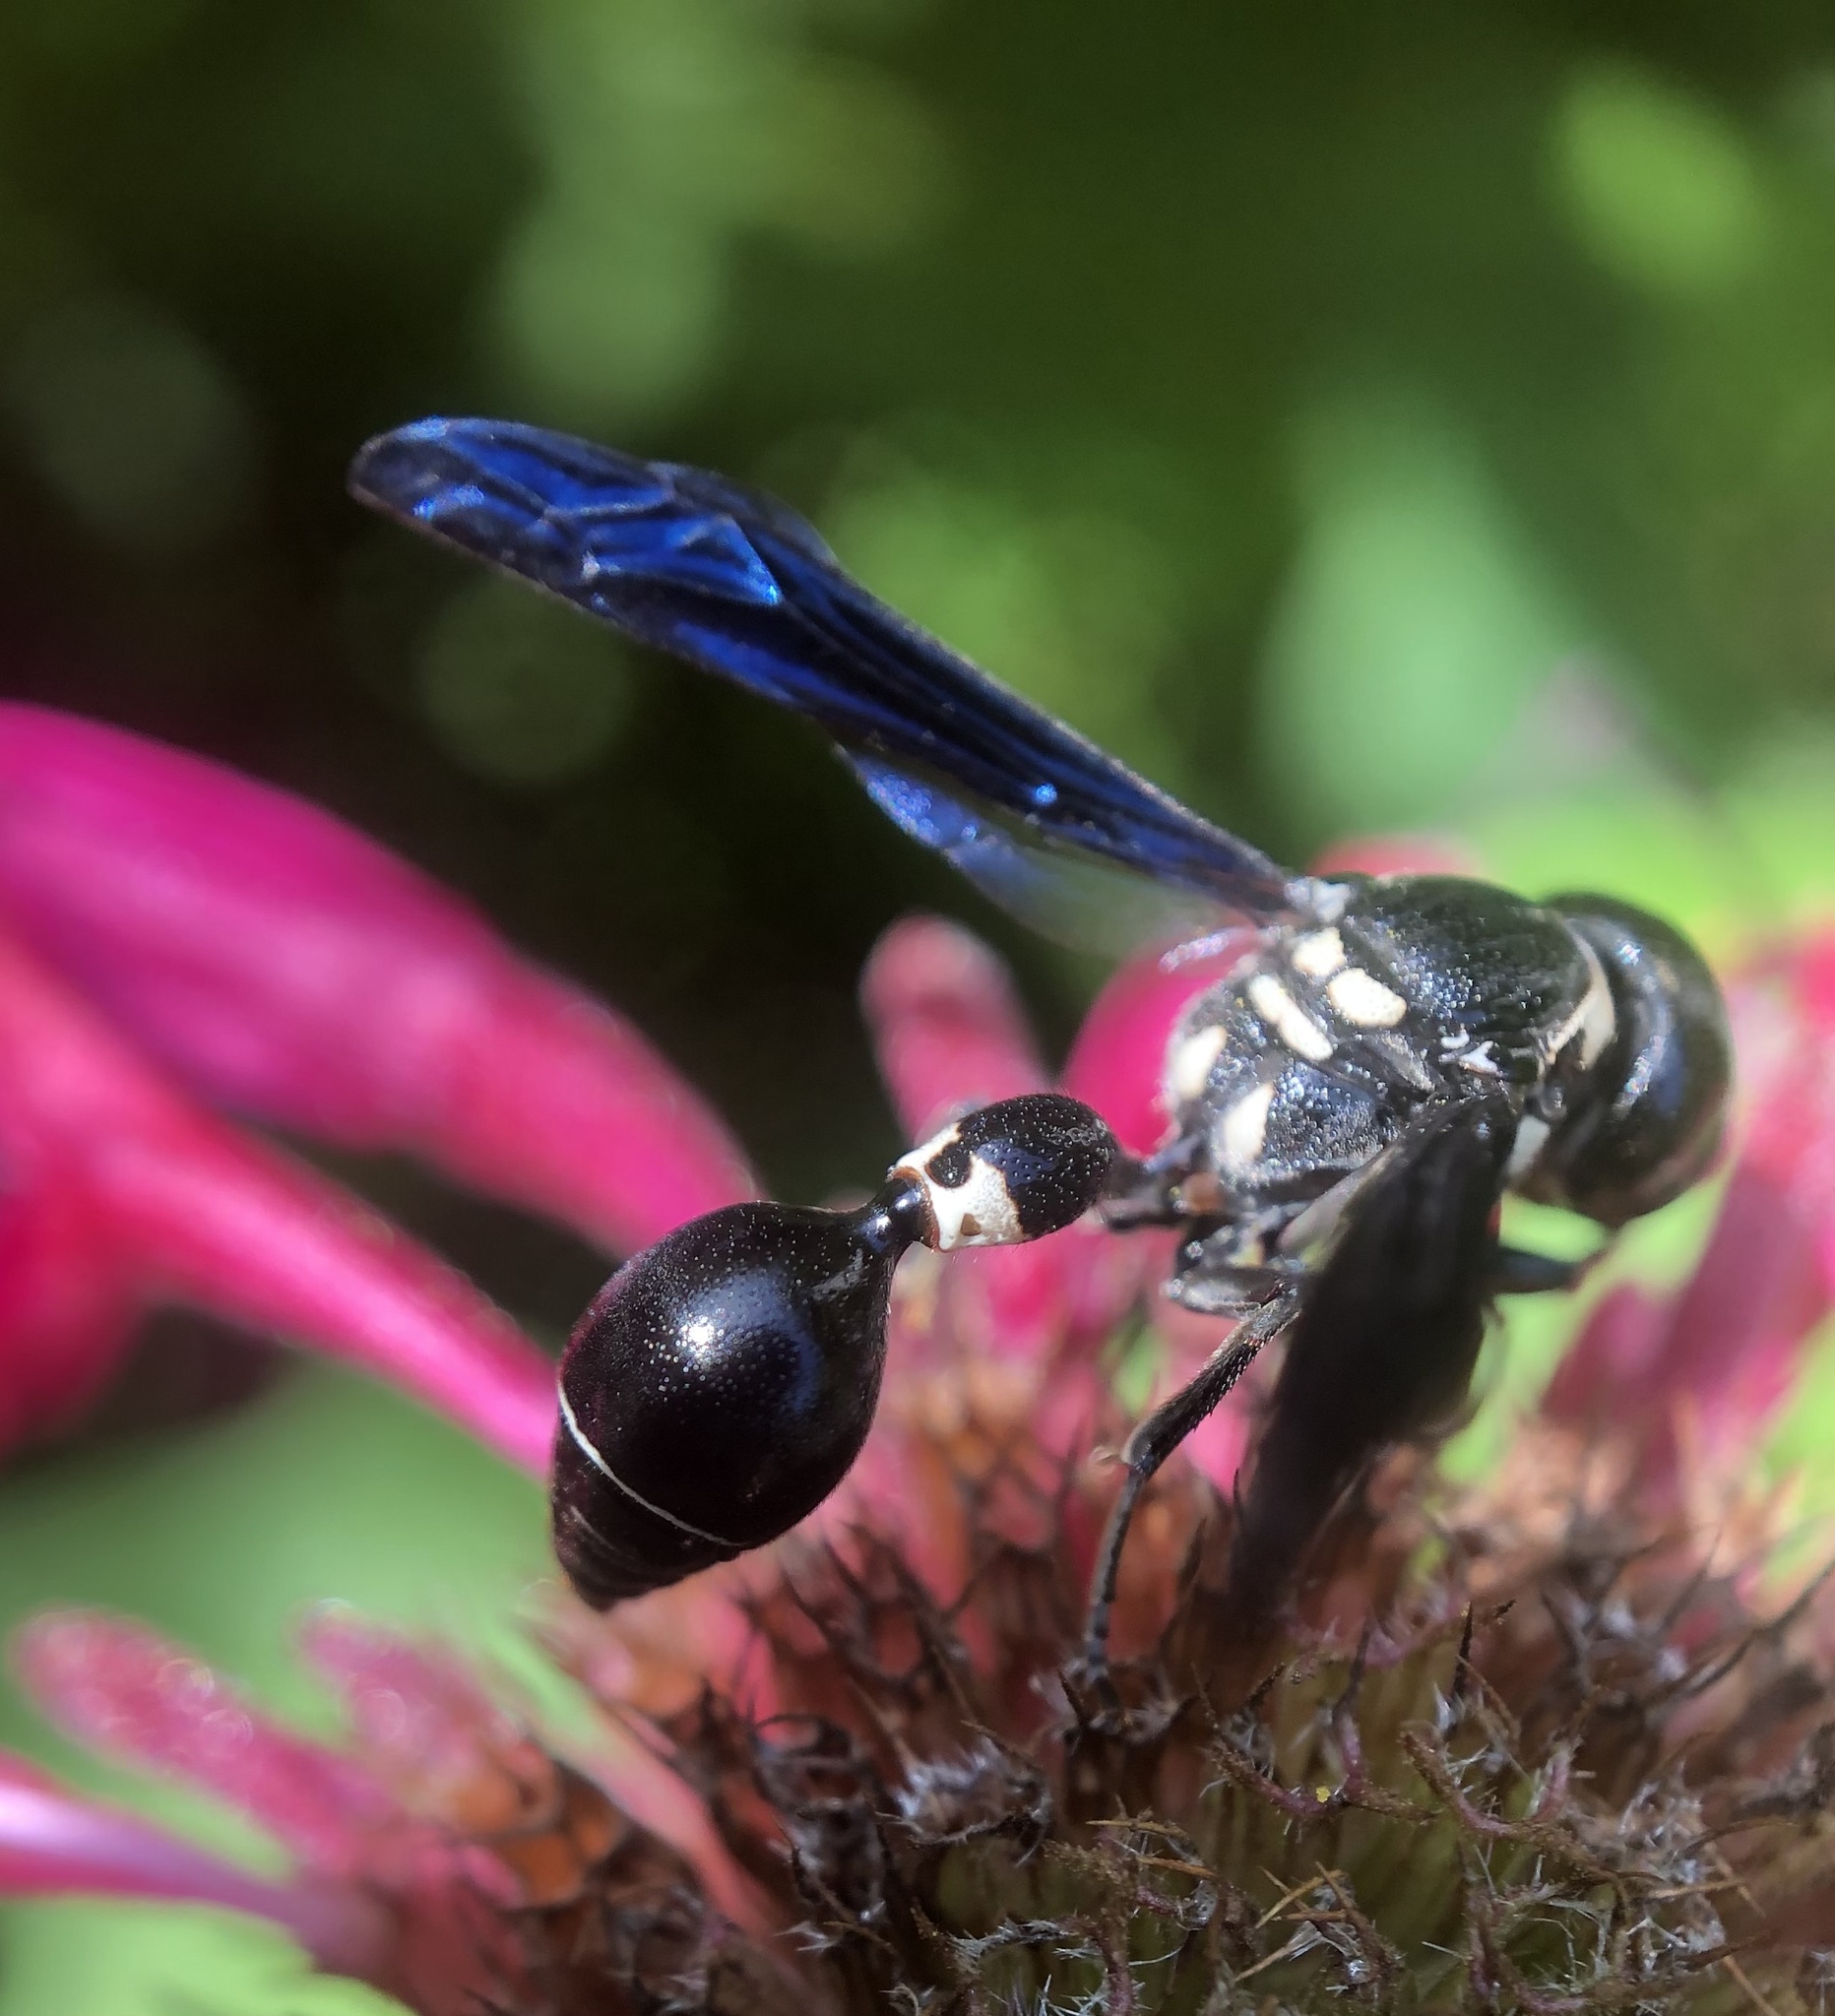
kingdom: Animalia
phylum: Arthropoda
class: Insecta
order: Hymenoptera
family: Eumenidae
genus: Zethus
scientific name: Zethus spinipes
